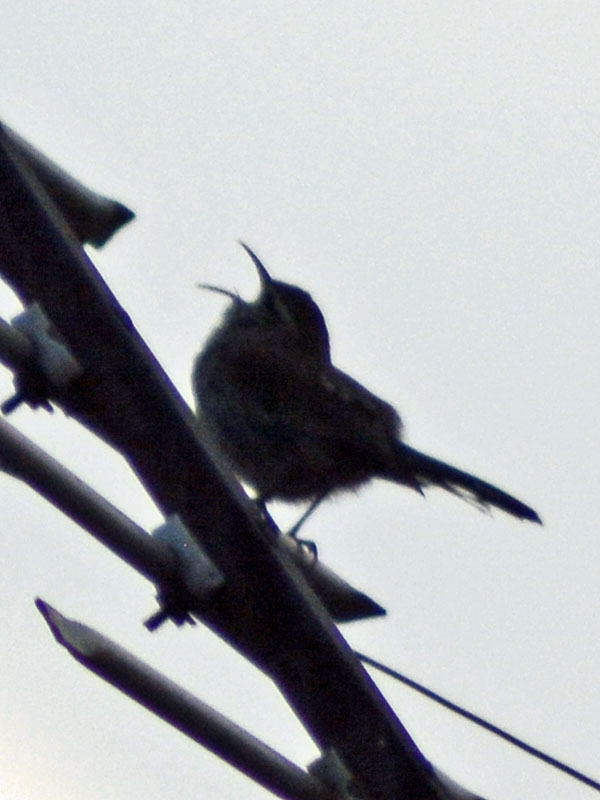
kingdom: Animalia
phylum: Chordata
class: Aves
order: Passeriformes
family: Troglodytidae
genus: Thryomanes
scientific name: Thryomanes bewickii
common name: Bewick's wren
